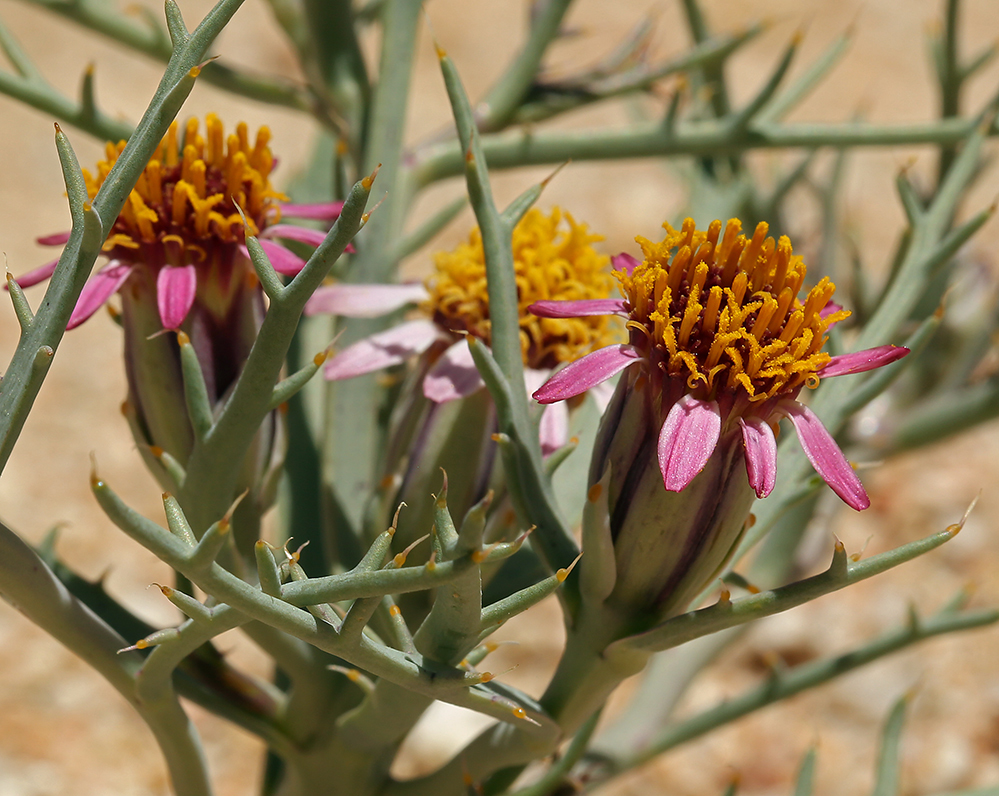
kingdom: Plantae
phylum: Tracheophyta
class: Magnoliopsida
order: Asterales
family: Asteraceae
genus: Nicolletia
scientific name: Nicolletia occidentalis
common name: Hole-in-the-sand-plant
